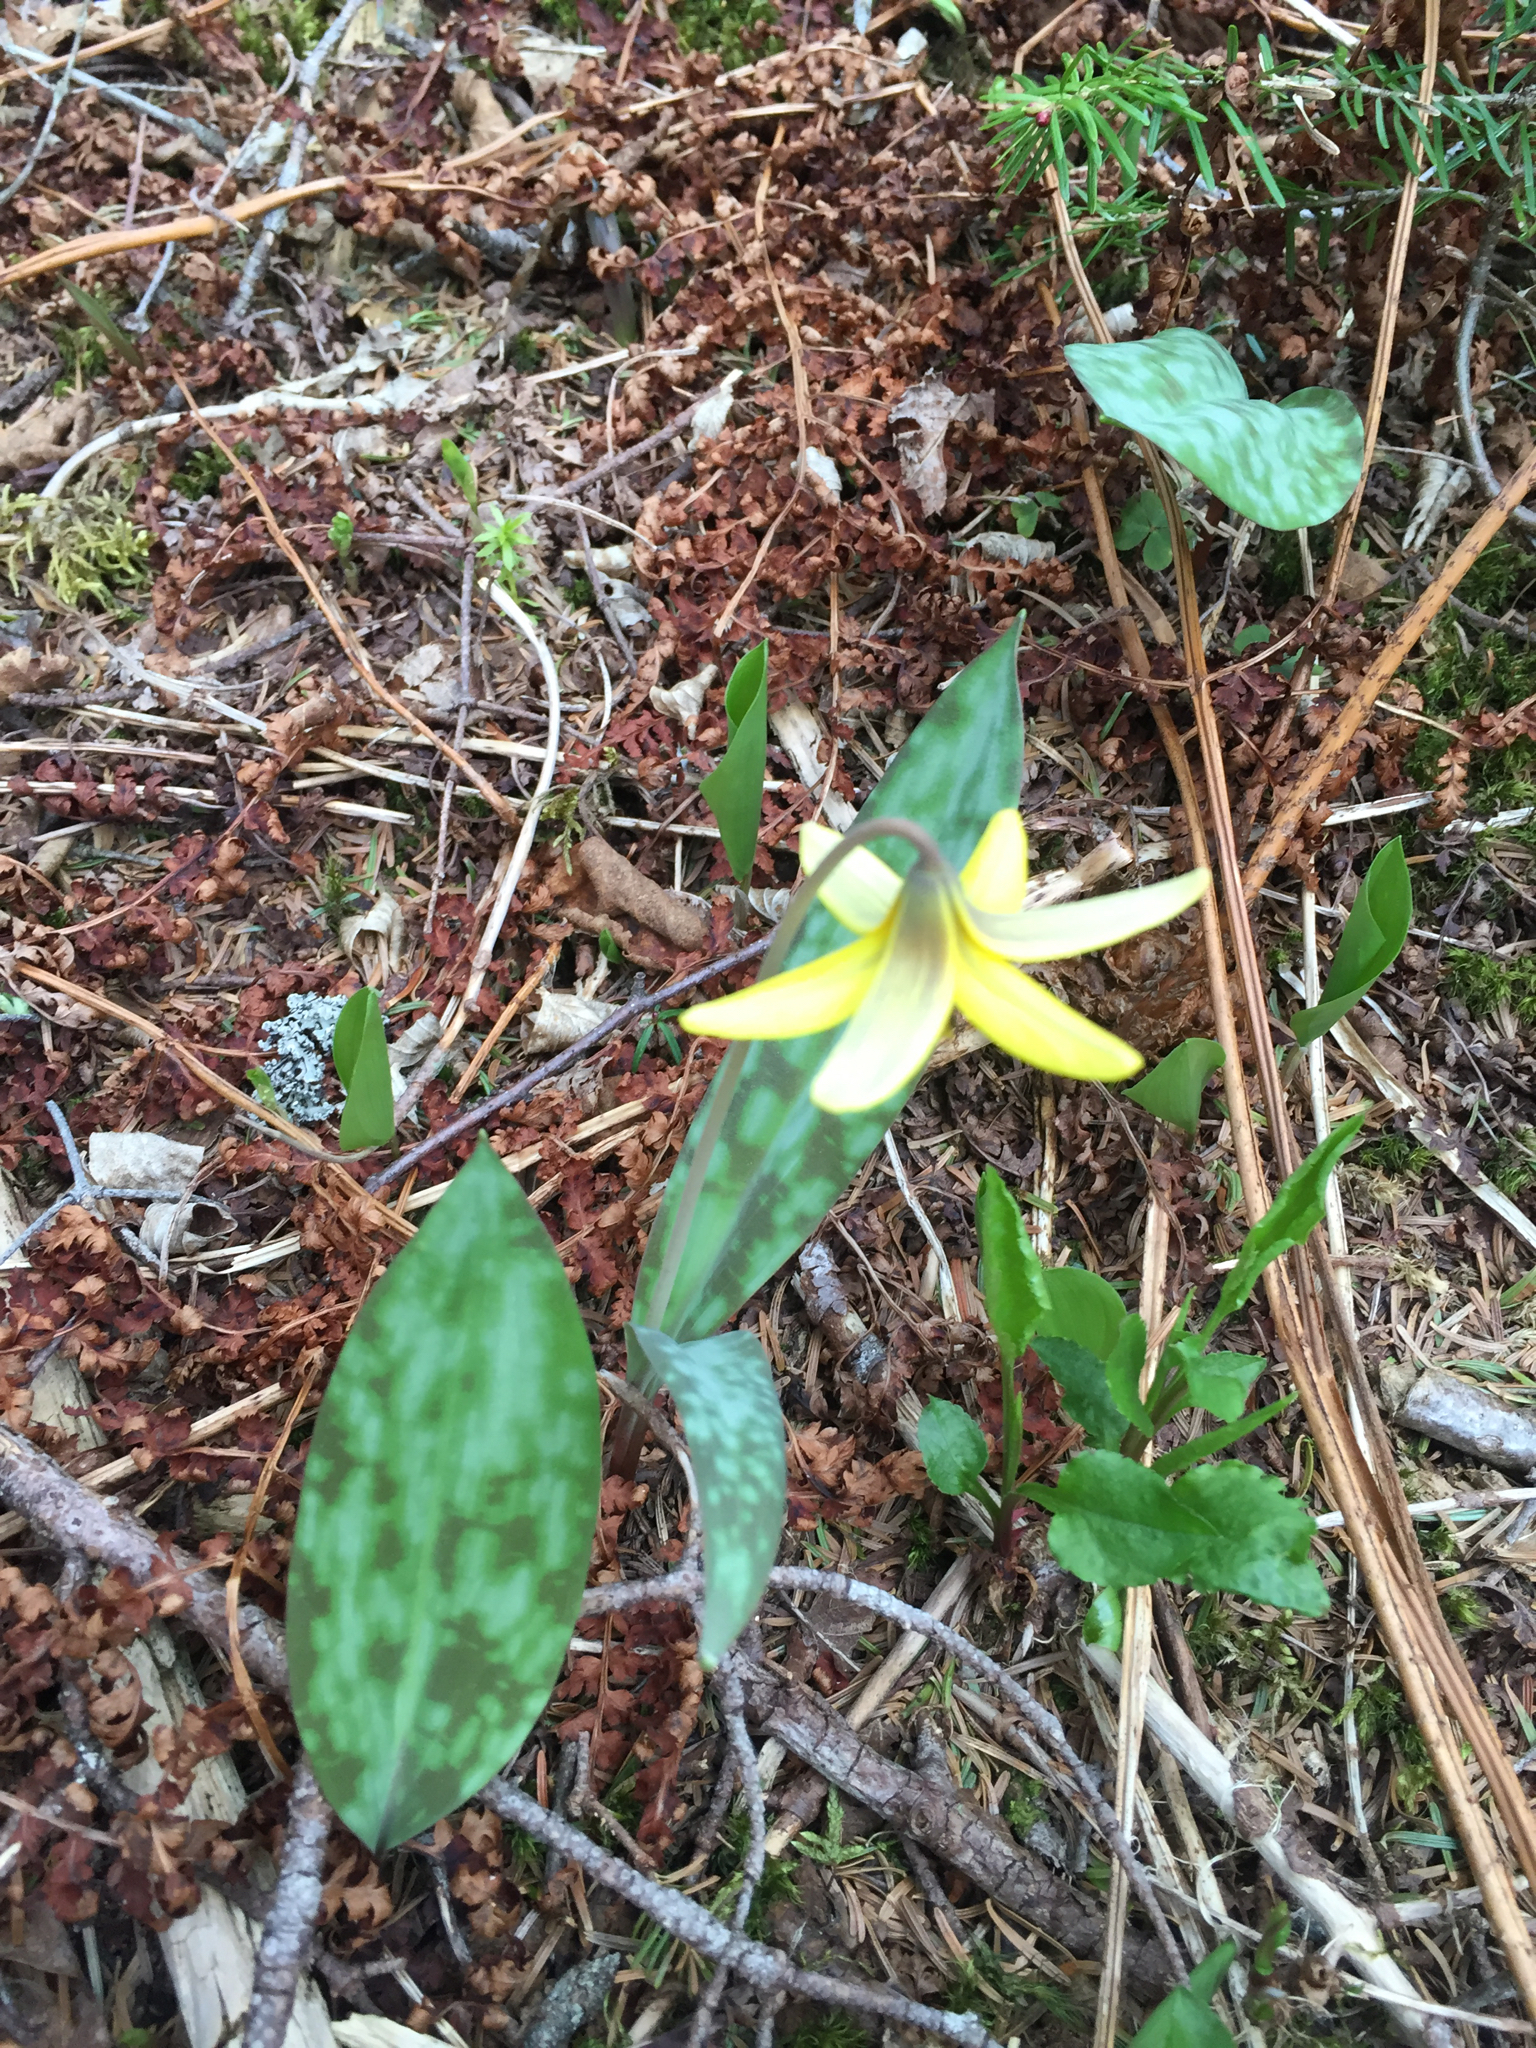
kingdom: Plantae
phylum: Tracheophyta
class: Liliopsida
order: Liliales
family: Liliaceae
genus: Erythronium
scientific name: Erythronium americanum
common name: Yellow adder's-tongue
